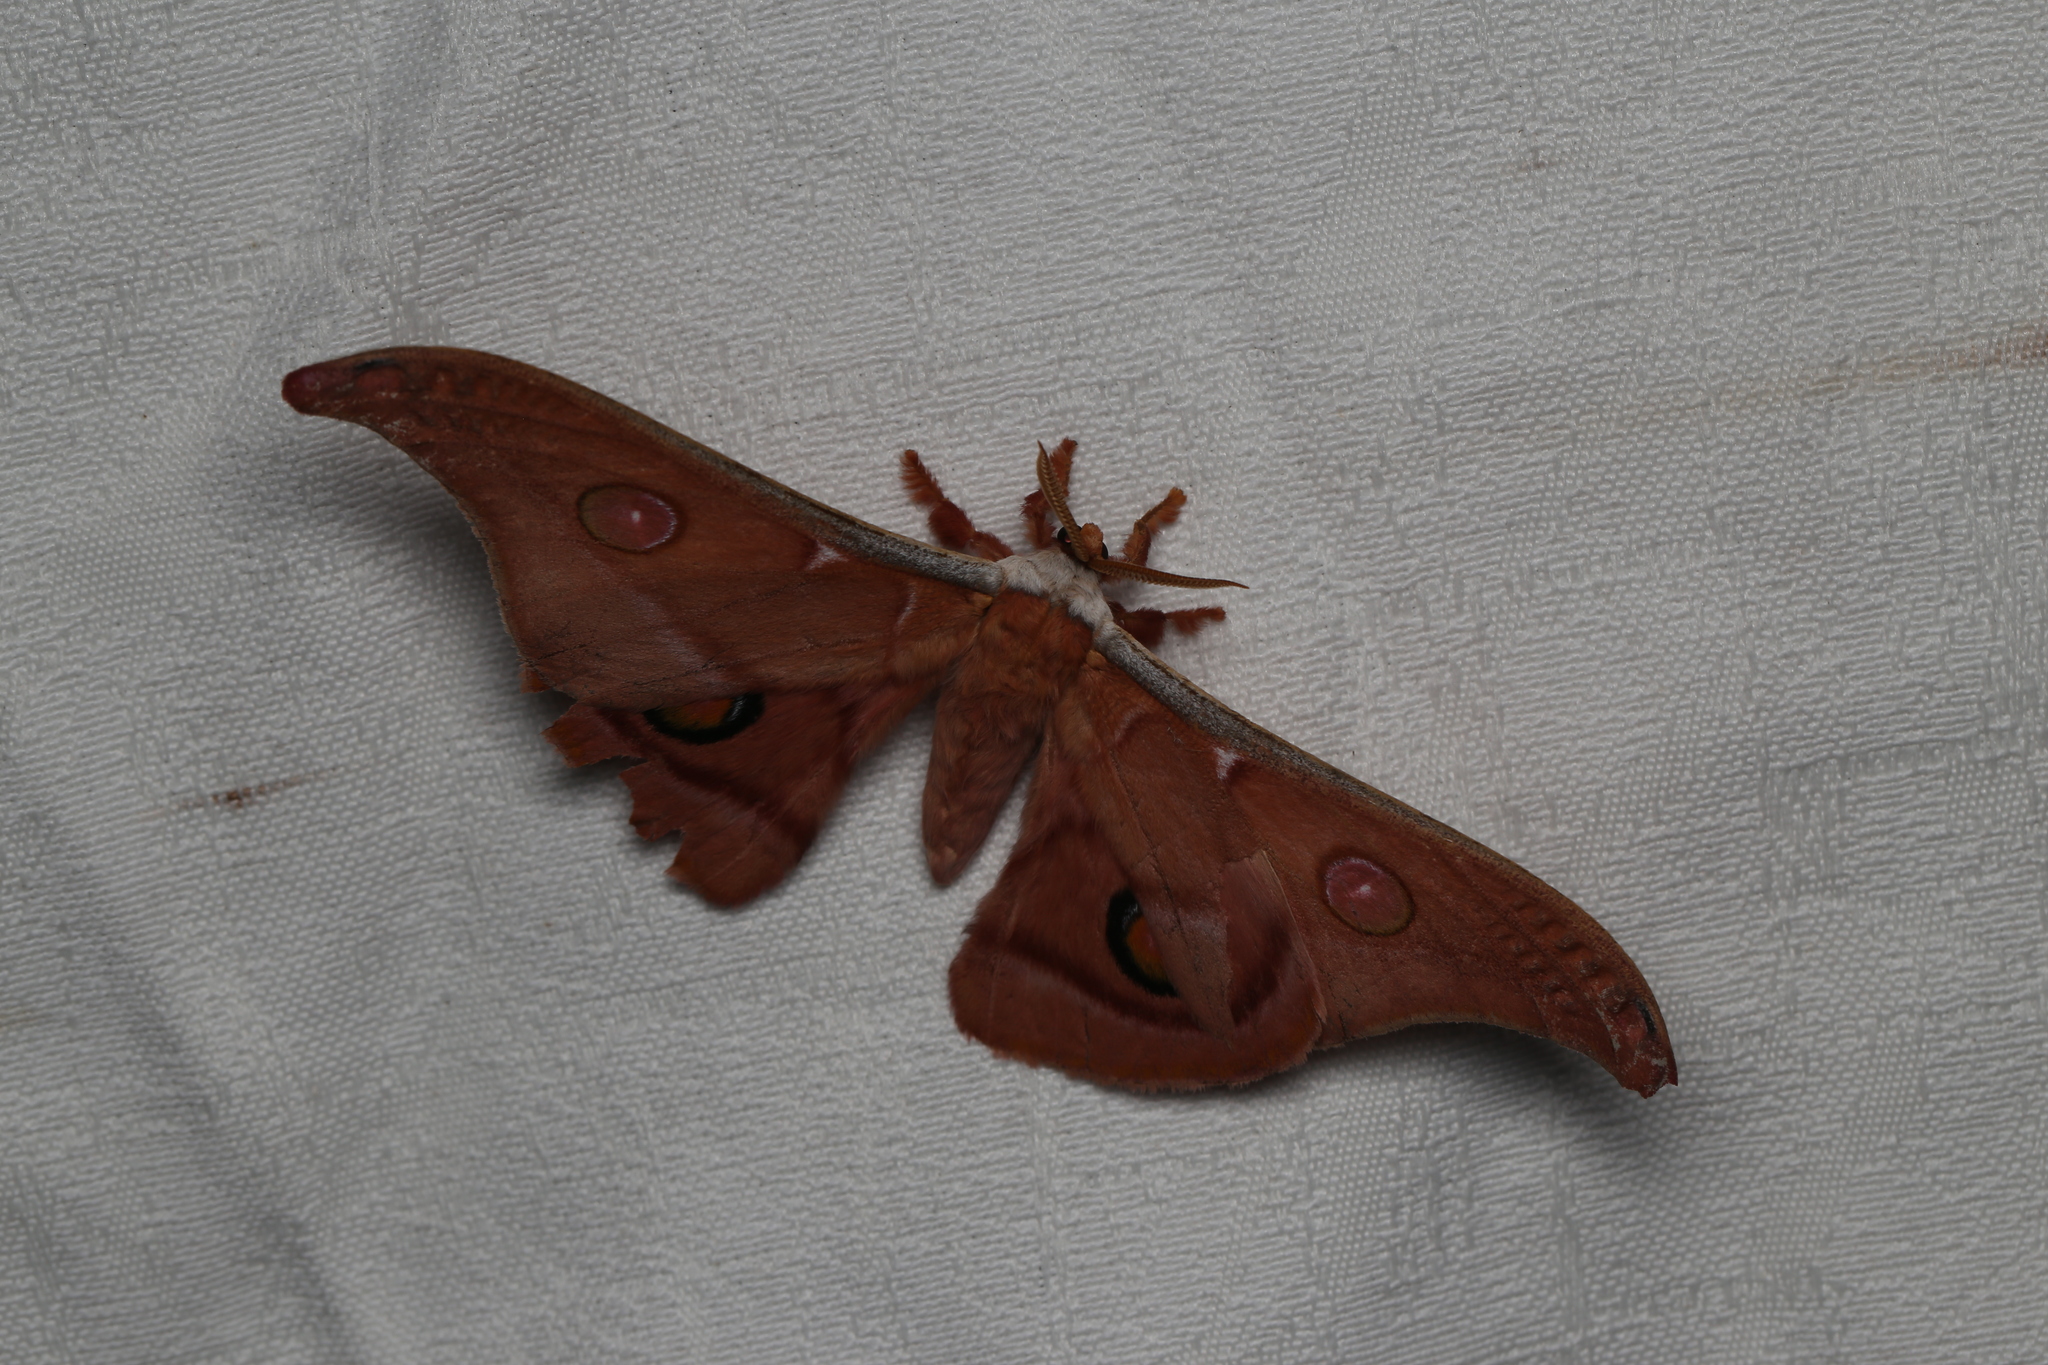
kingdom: Animalia
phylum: Arthropoda
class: Insecta
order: Lepidoptera
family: Saturniidae
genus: Opodiphthera
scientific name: Opodiphthera
